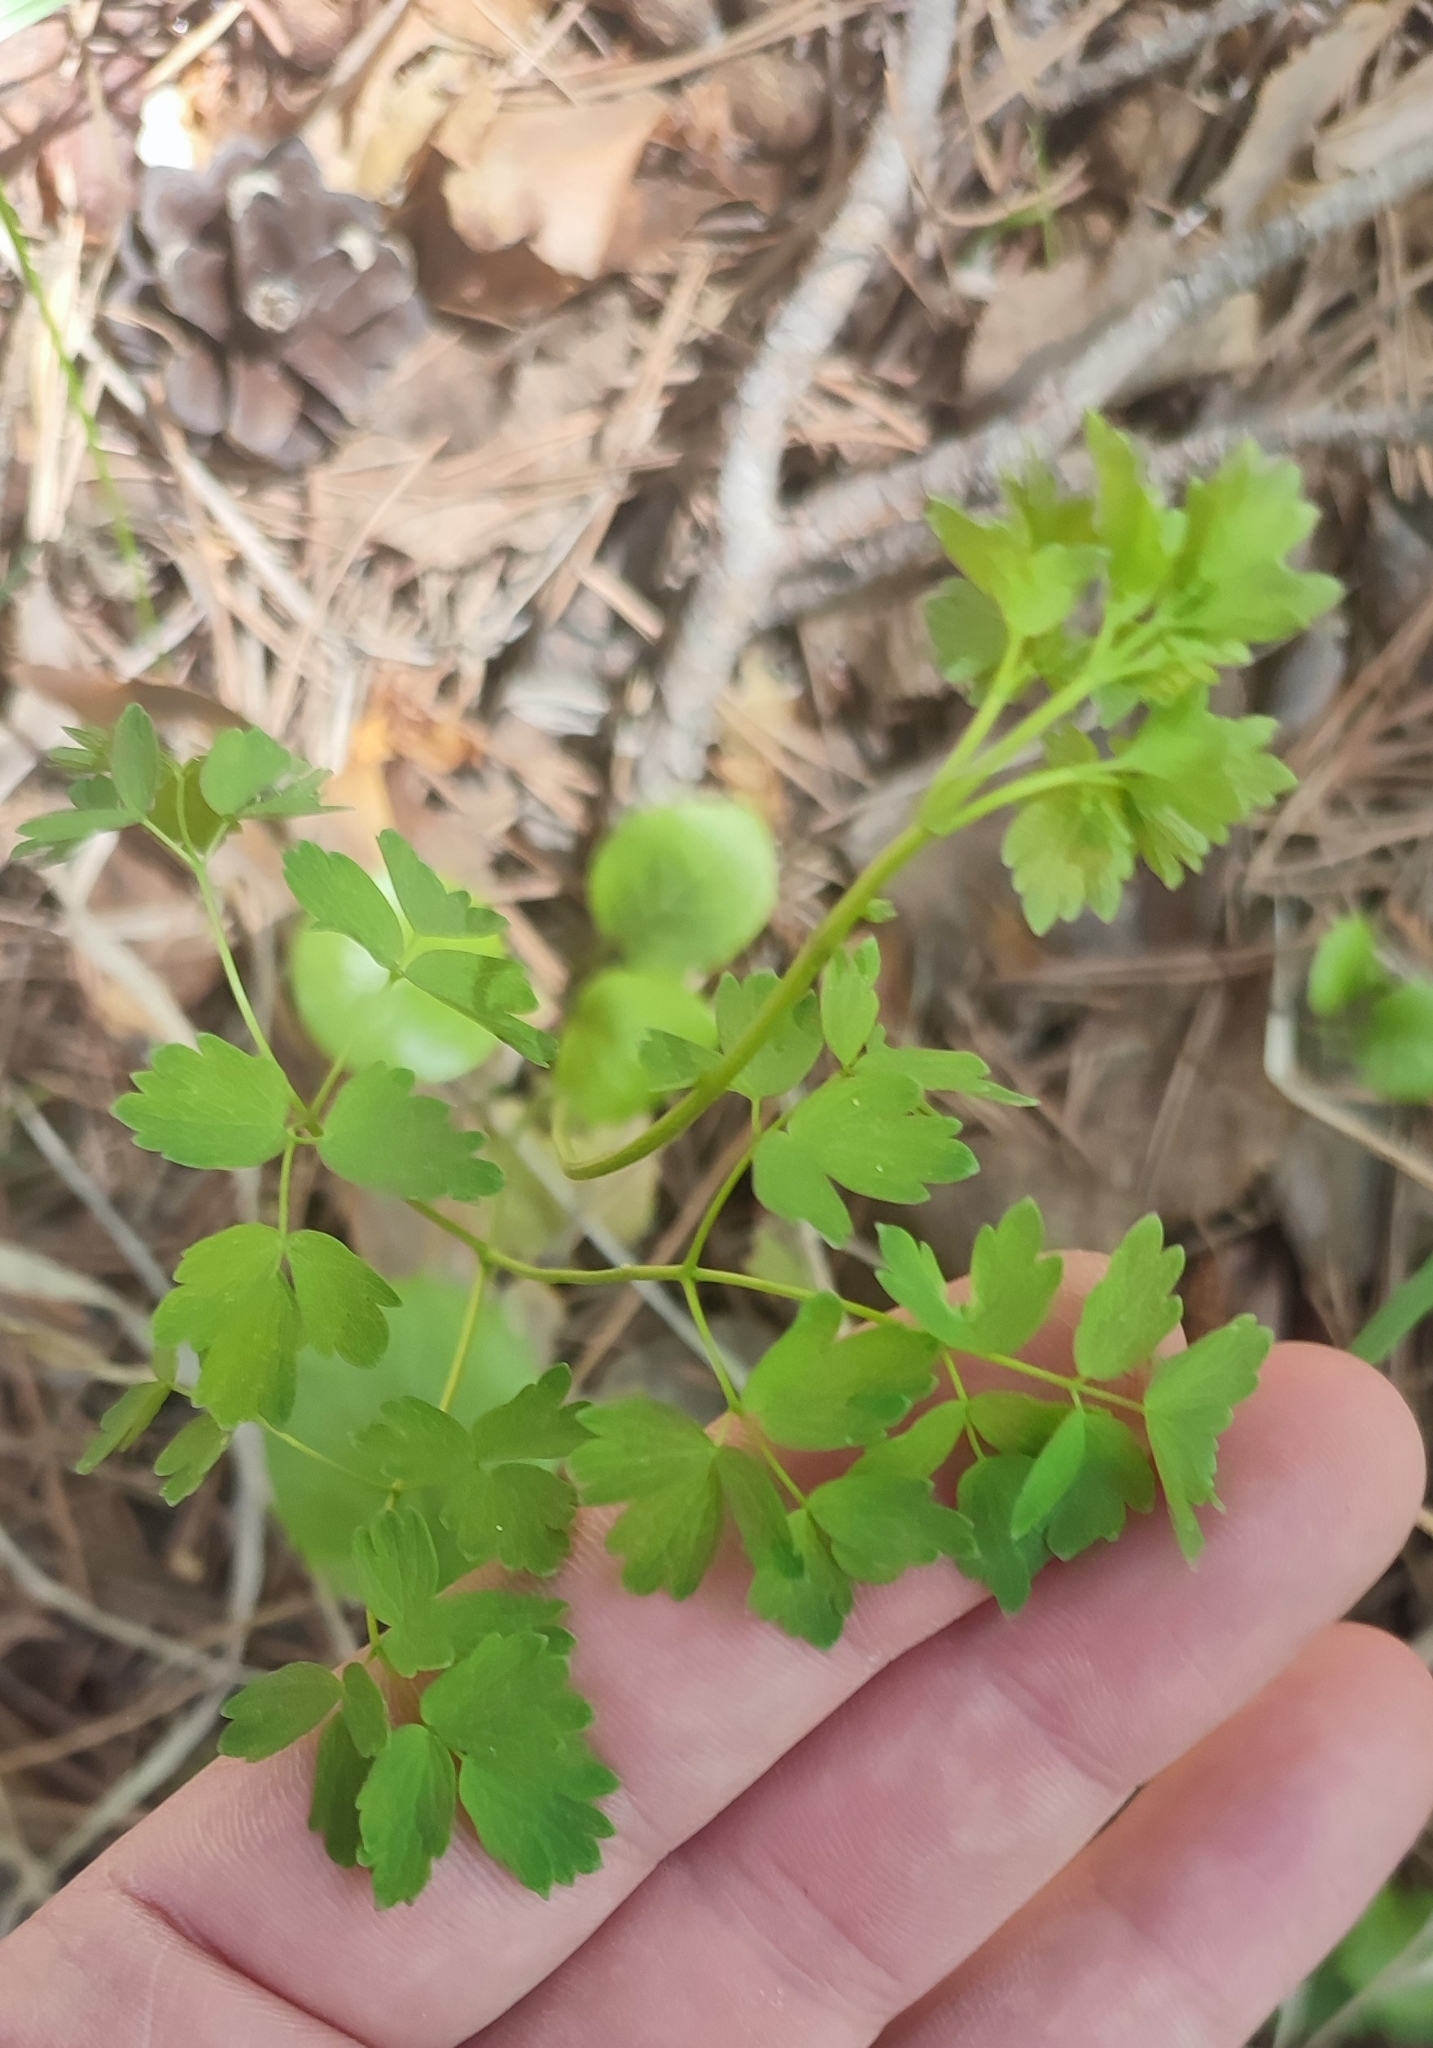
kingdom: Plantae
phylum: Tracheophyta
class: Magnoliopsida
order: Ranunculales
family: Ranunculaceae
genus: Thalictrum
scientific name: Thalictrum minus
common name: Lesser meadow-rue
